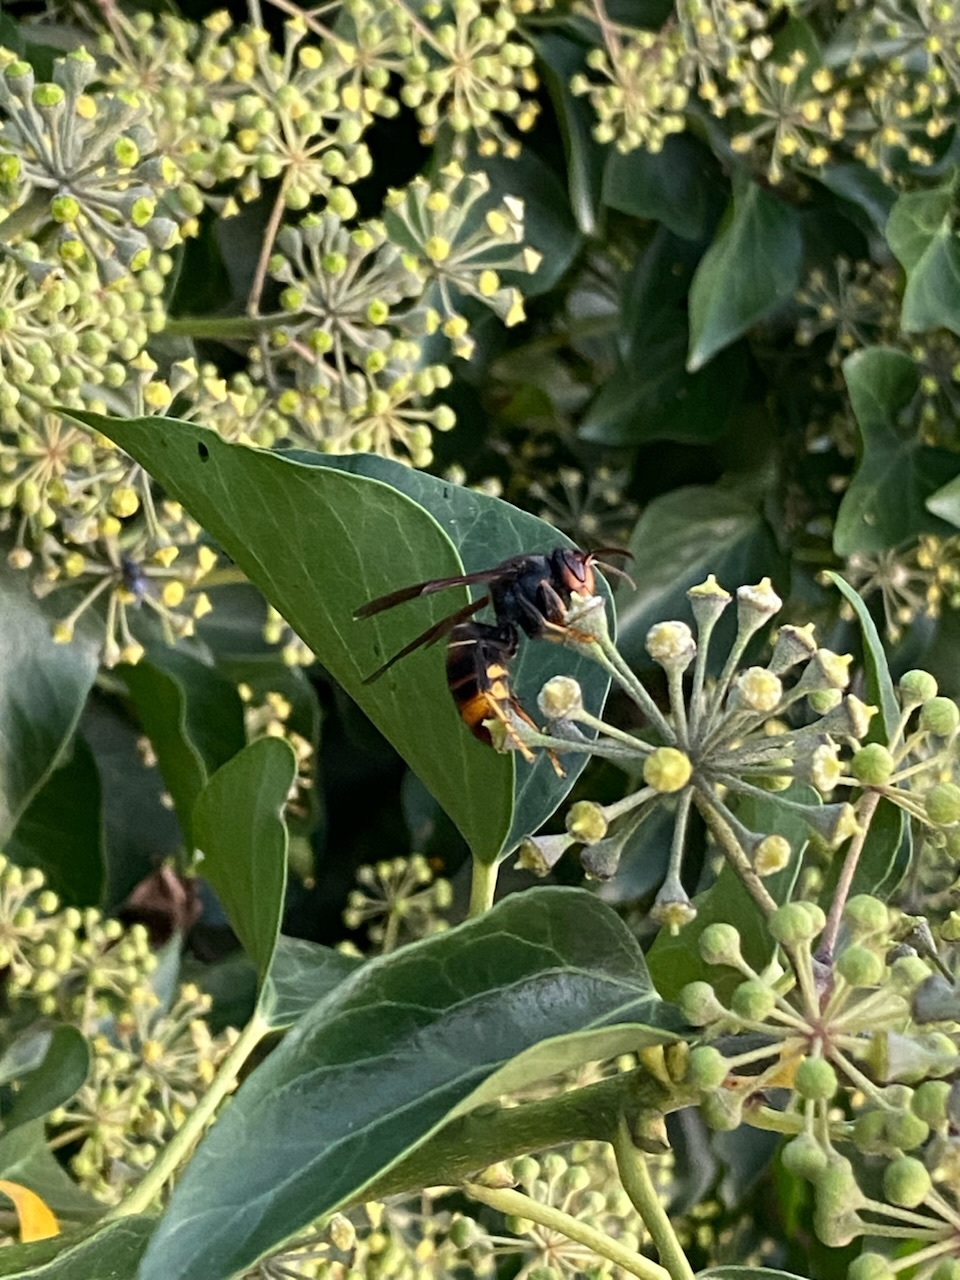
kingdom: Animalia
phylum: Arthropoda
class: Insecta
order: Hymenoptera
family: Vespidae
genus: Vespa
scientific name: Vespa velutina
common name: Asian hornet
